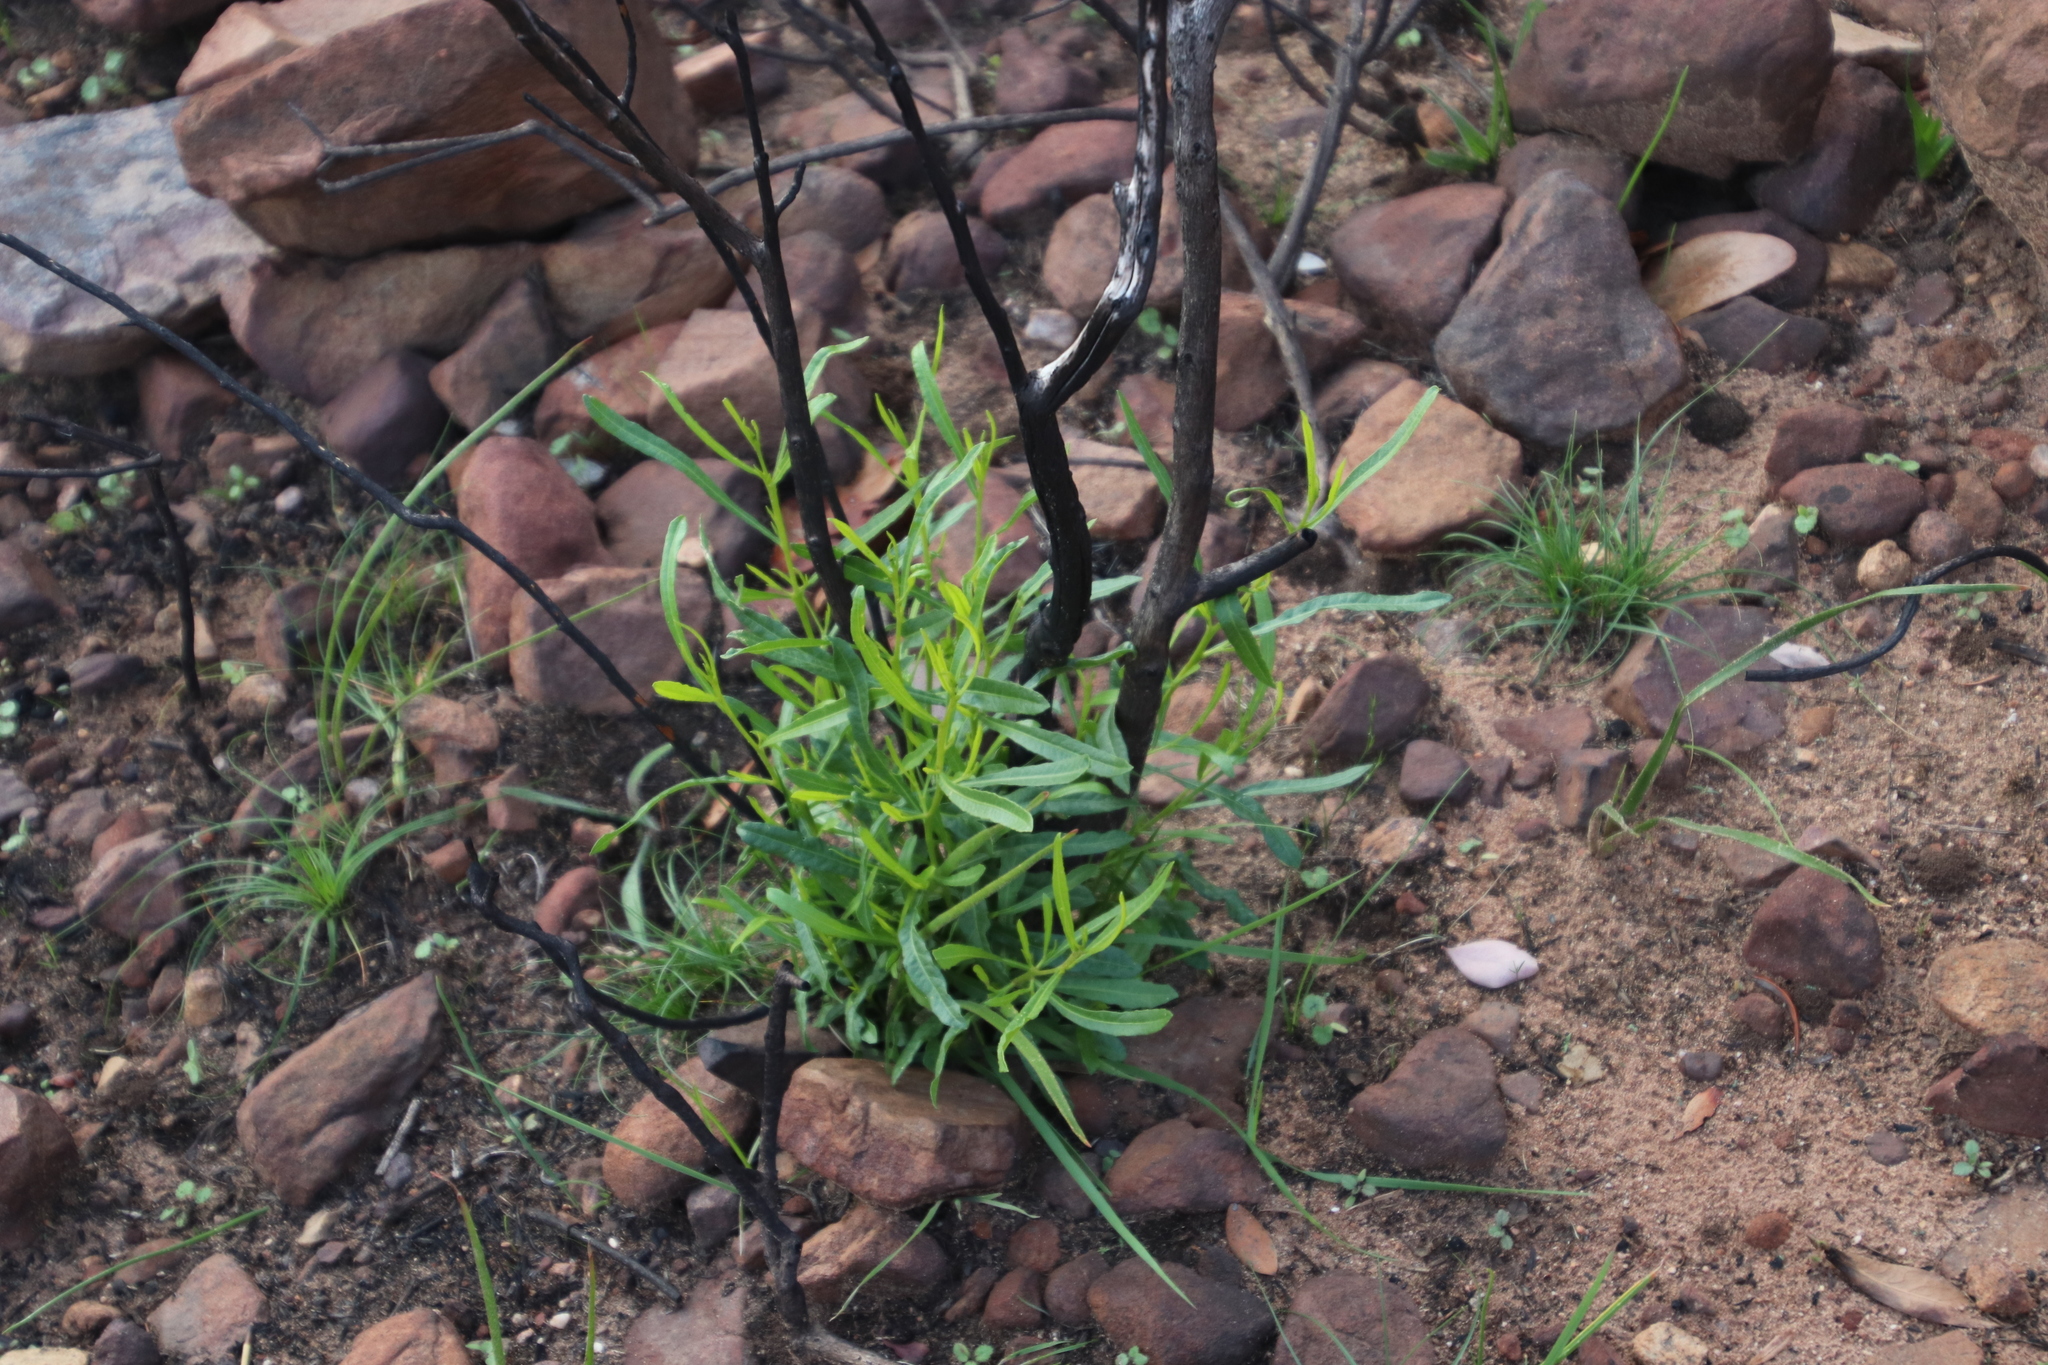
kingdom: Plantae
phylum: Tracheophyta
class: Magnoliopsida
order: Sapindales
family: Sapindaceae
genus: Dodonaea
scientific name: Dodonaea viscosa
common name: Hopbush
